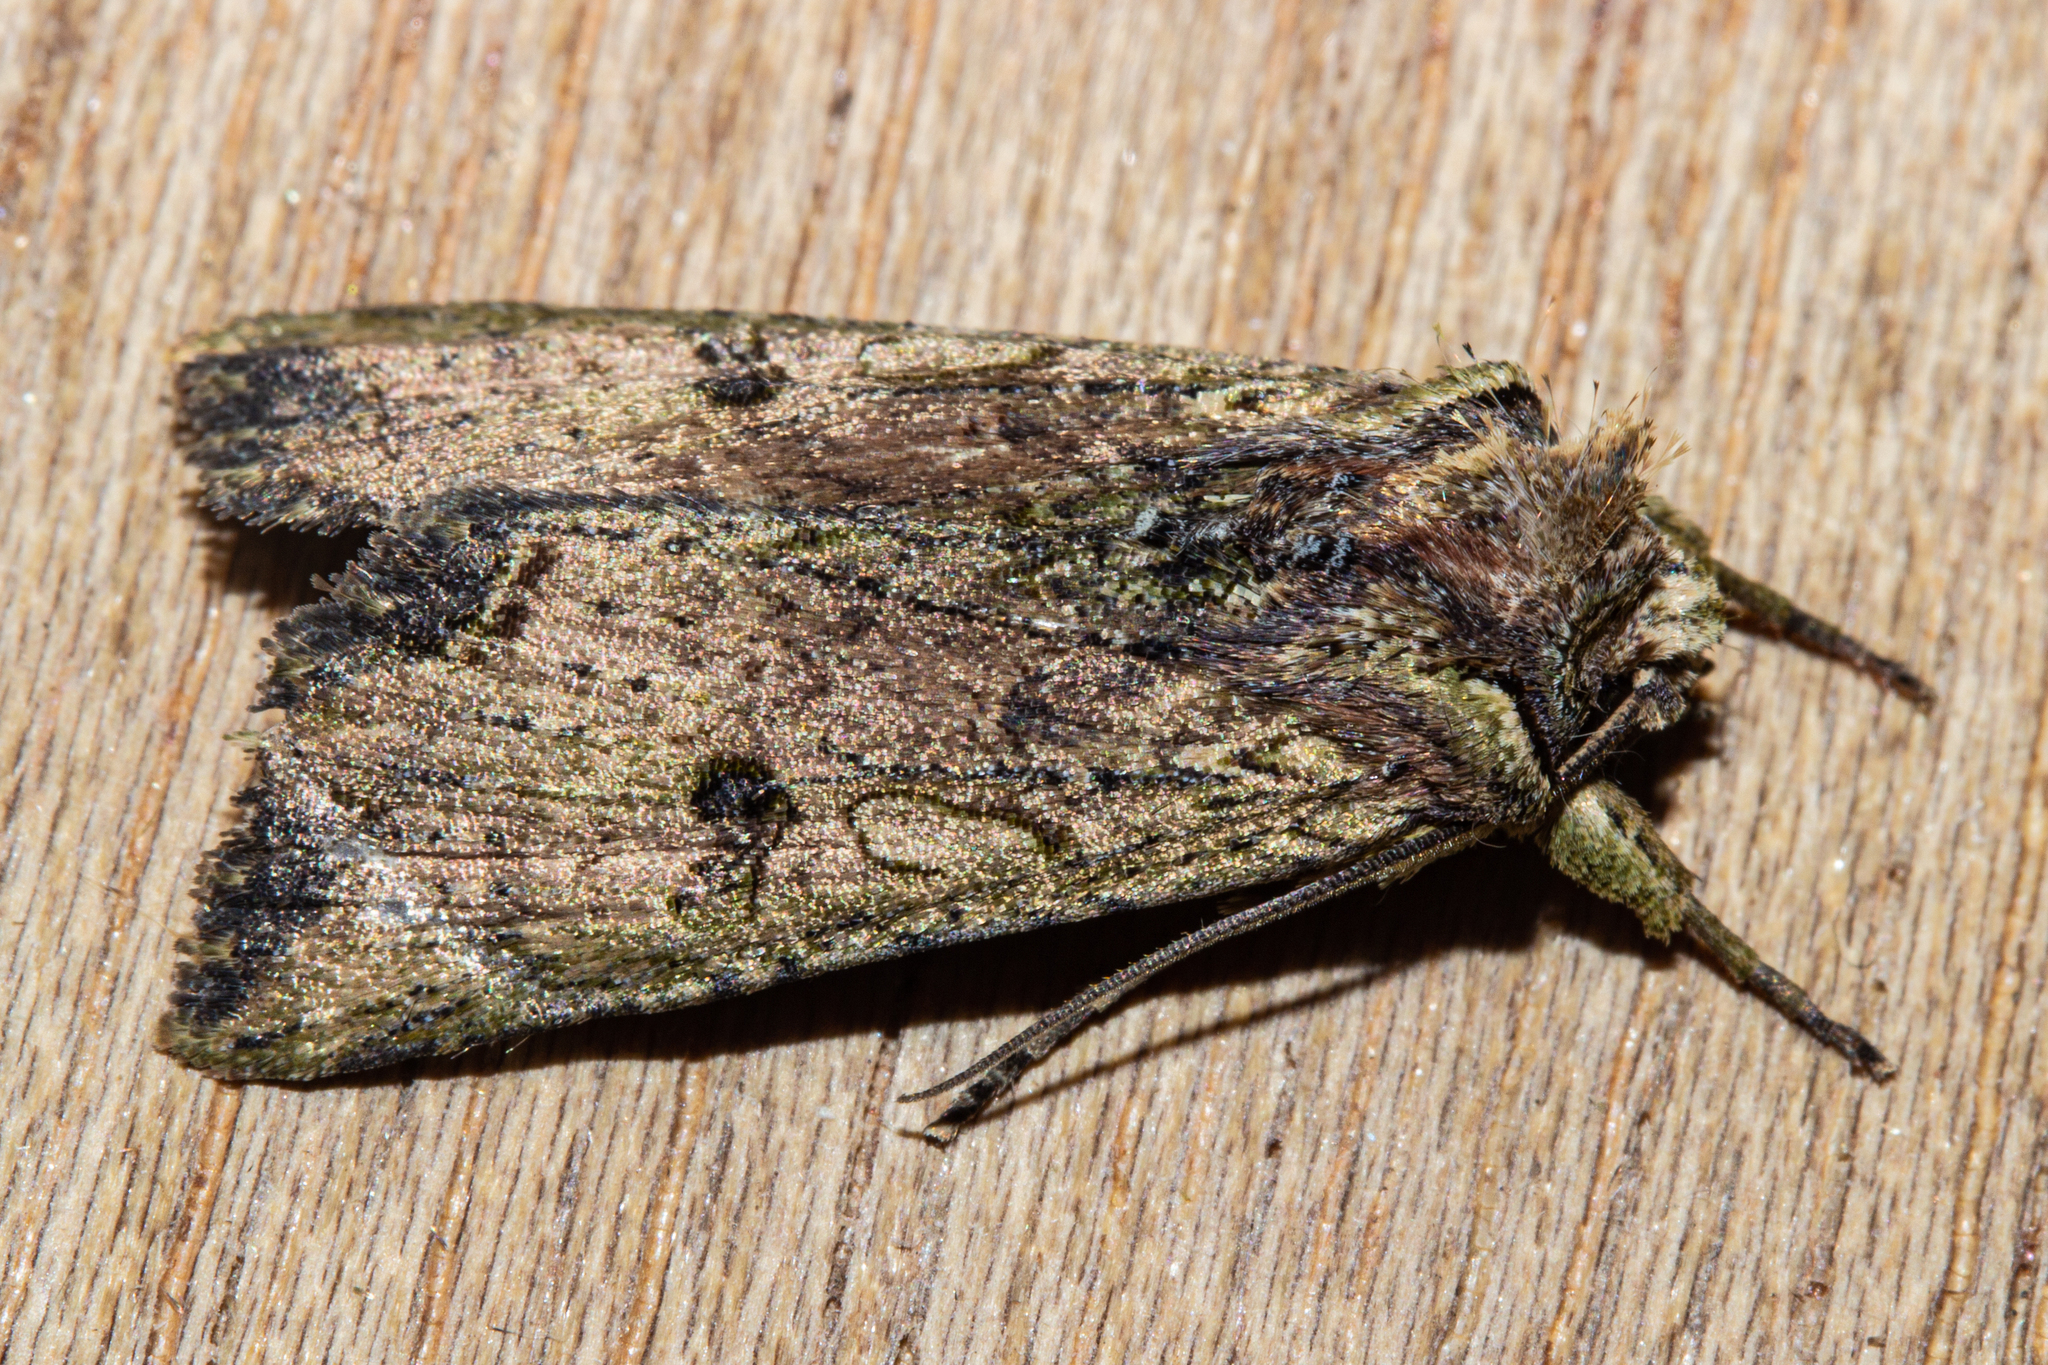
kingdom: Animalia
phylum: Arthropoda
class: Insecta
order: Lepidoptera
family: Noctuidae
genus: Meterana
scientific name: Meterana coeleno
